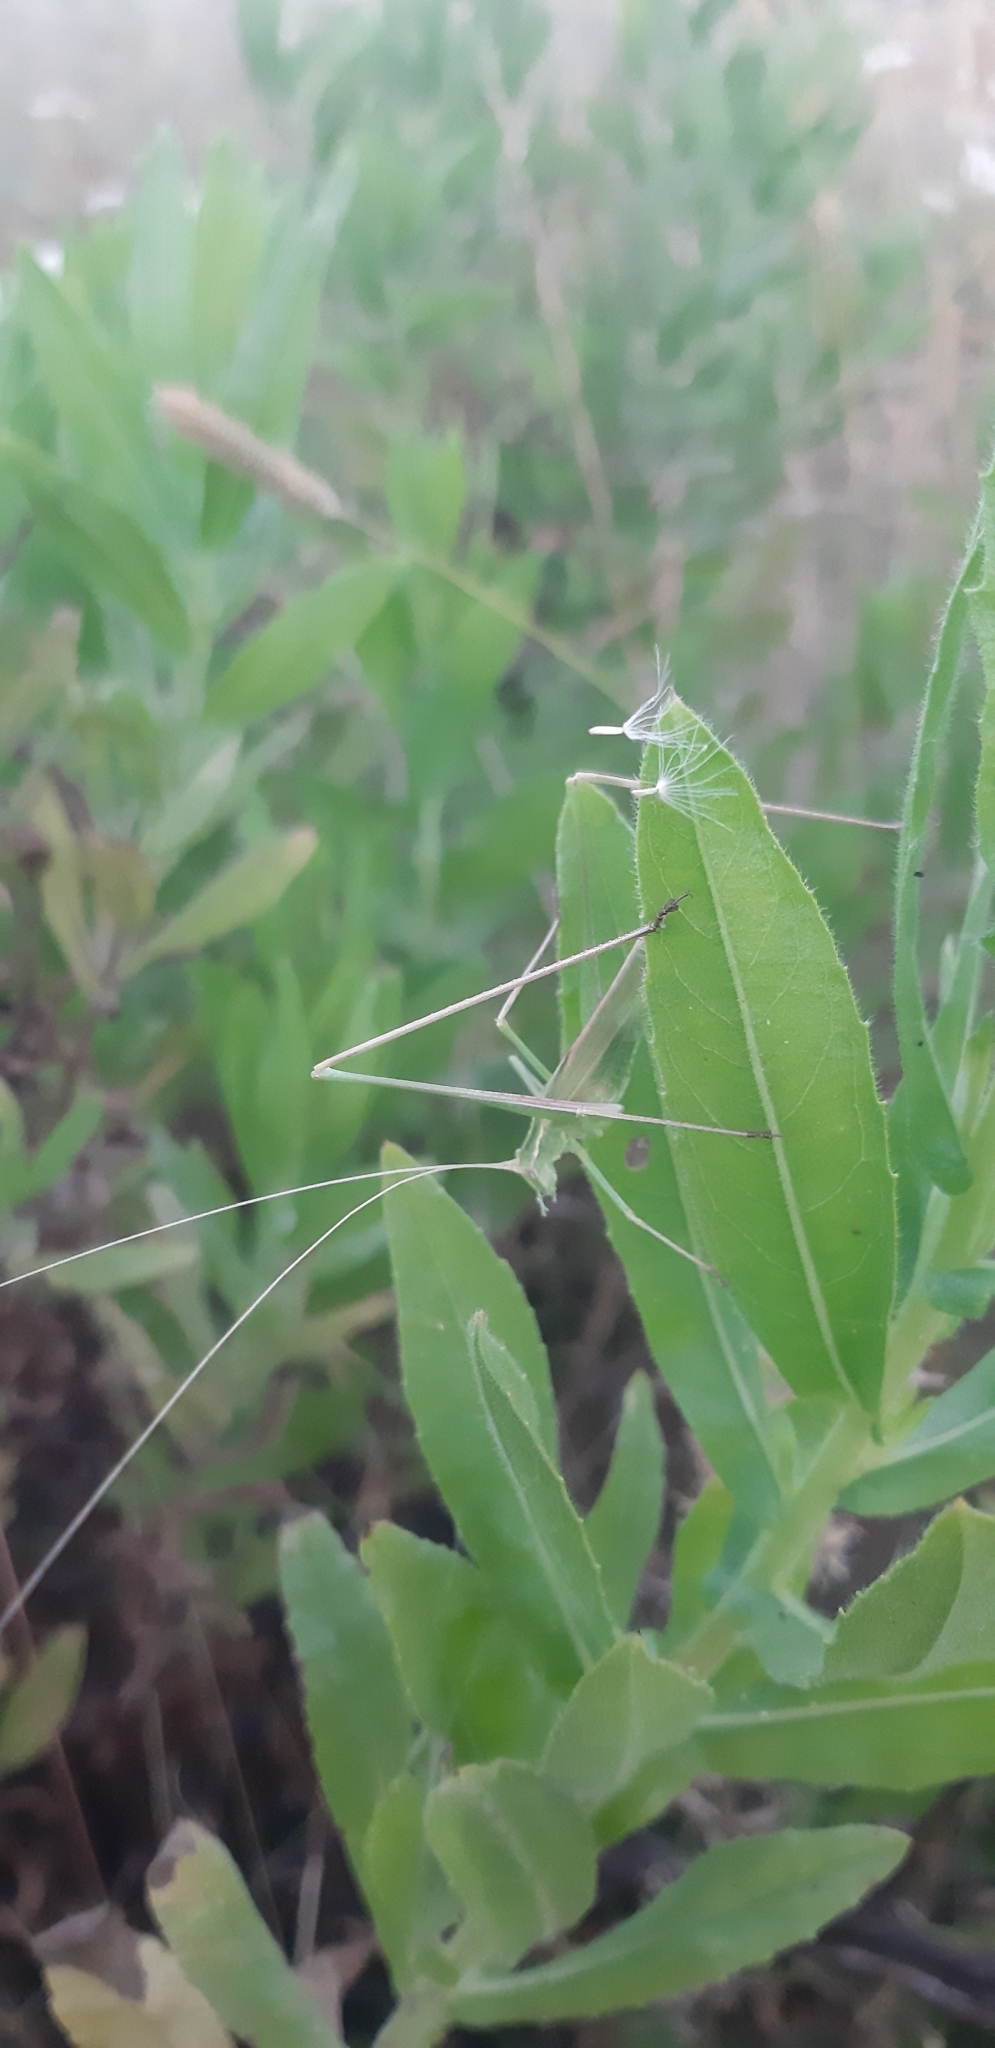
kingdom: Animalia
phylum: Arthropoda
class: Insecta
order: Orthoptera
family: Tettigoniidae
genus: Tylopsis
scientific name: Tylopsis lilifolia
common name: Lily bush-cricket
